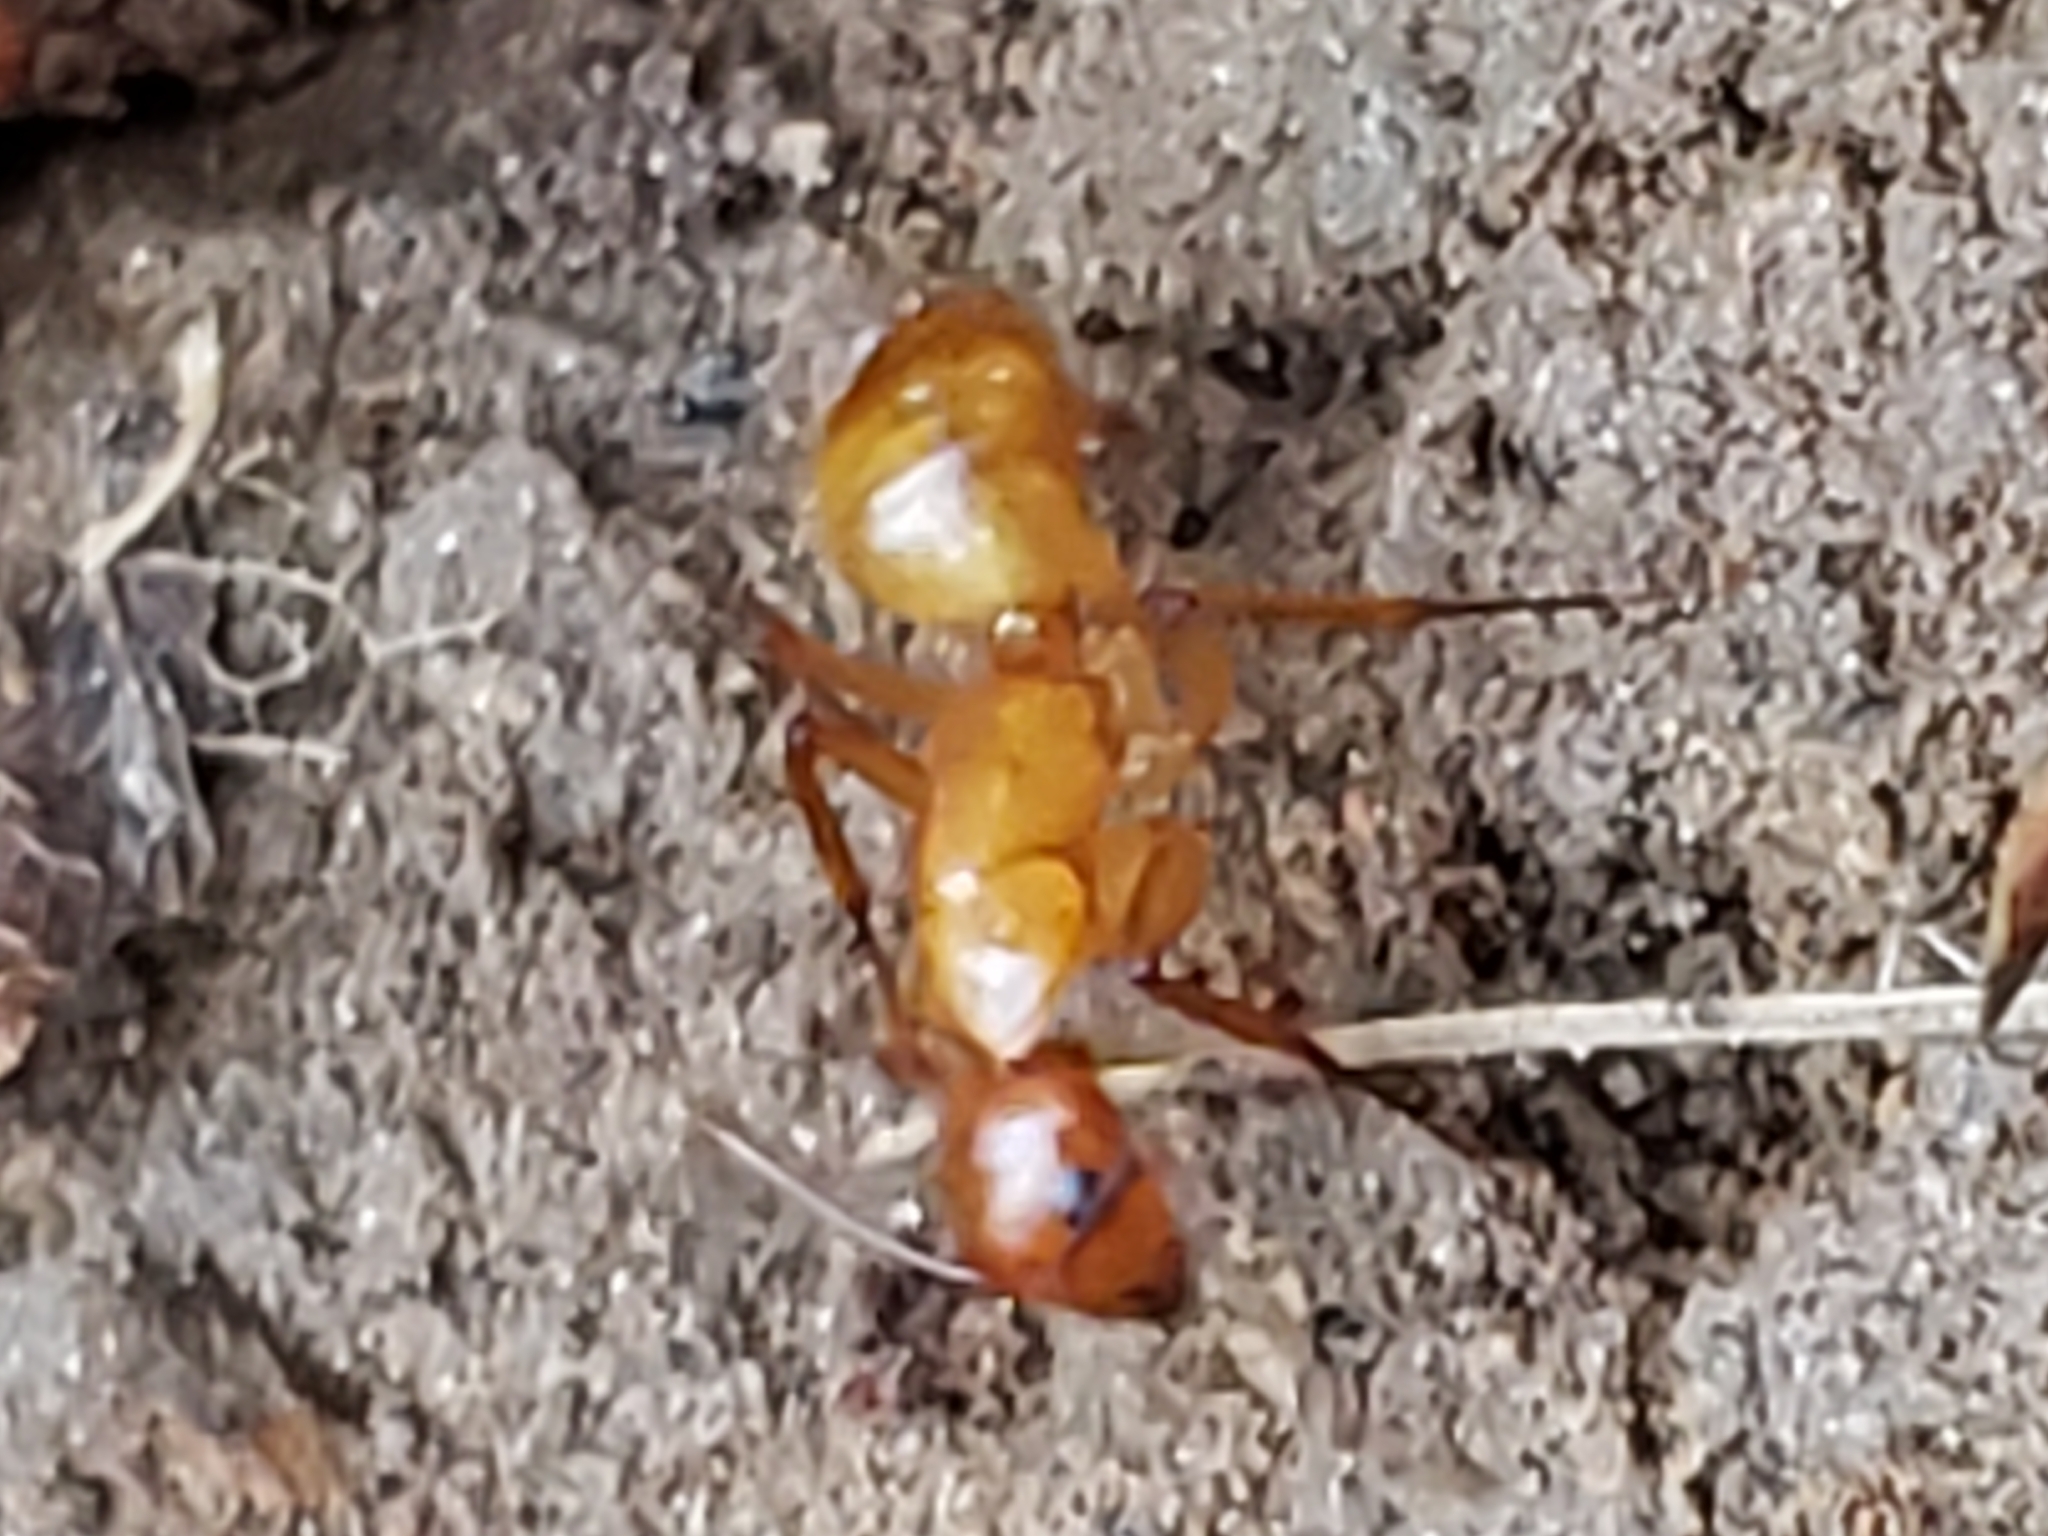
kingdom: Animalia
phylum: Arthropoda
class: Insecta
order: Hymenoptera
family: Formicidae
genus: Camponotus
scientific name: Camponotus castaneus
